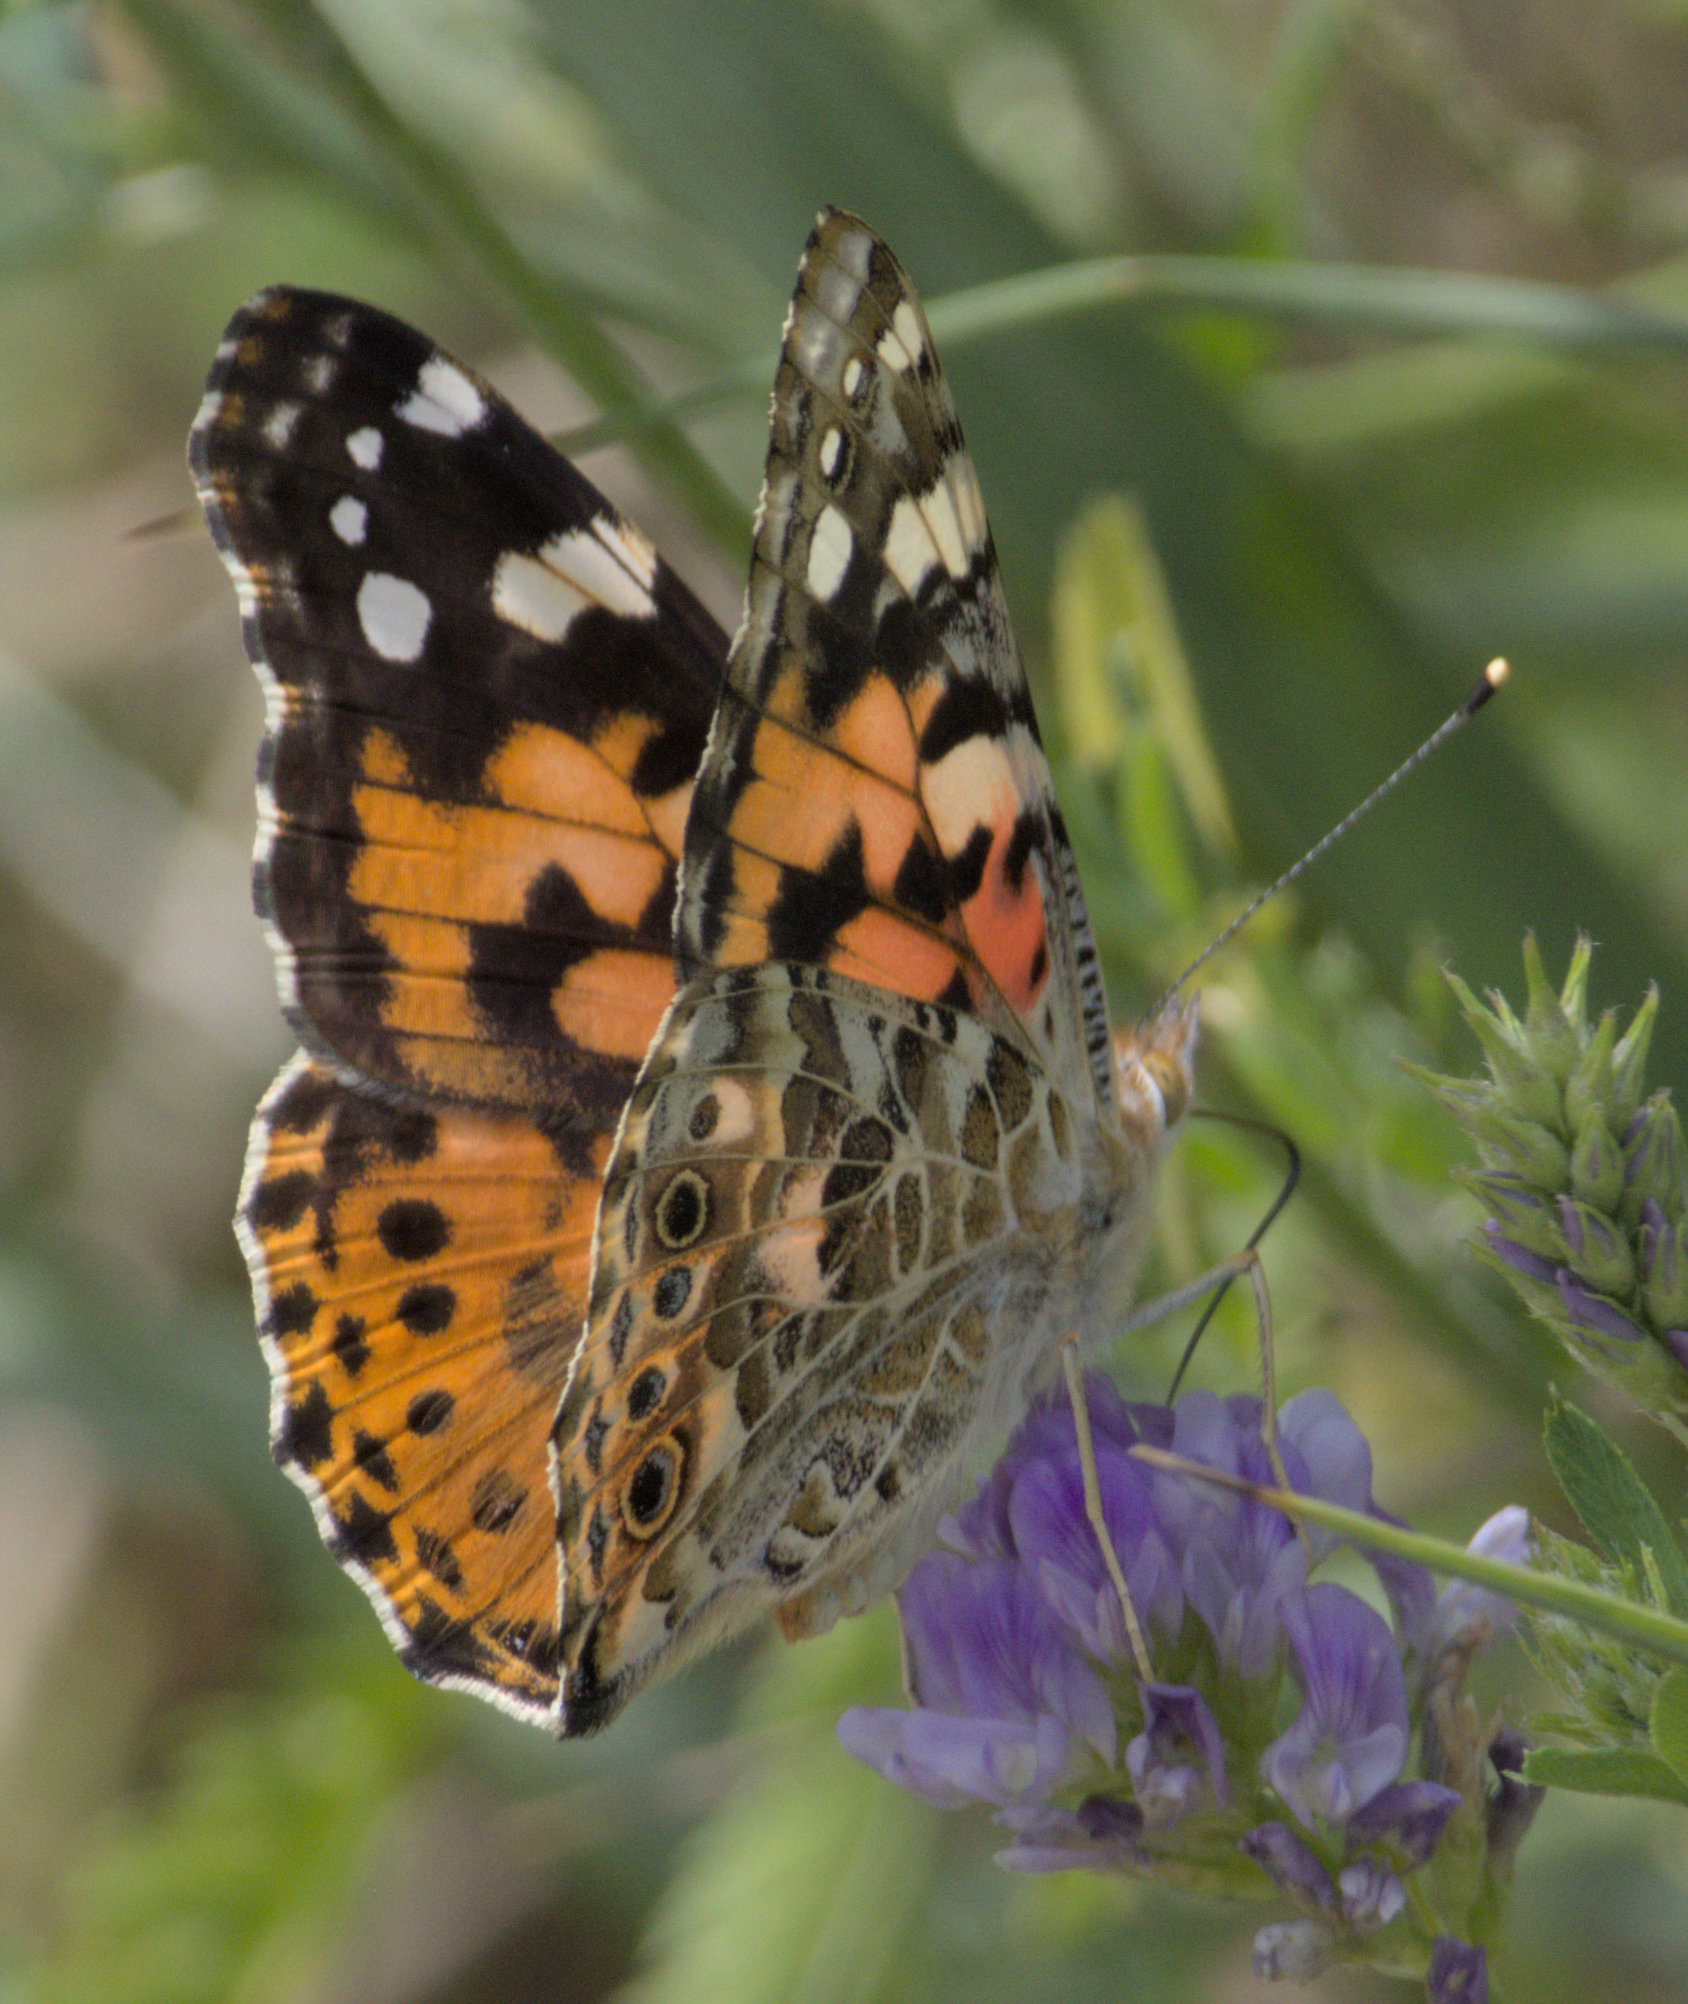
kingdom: Animalia
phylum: Arthropoda
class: Insecta
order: Lepidoptera
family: Nymphalidae
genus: Vanessa
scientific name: Vanessa cardui
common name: Painted lady
